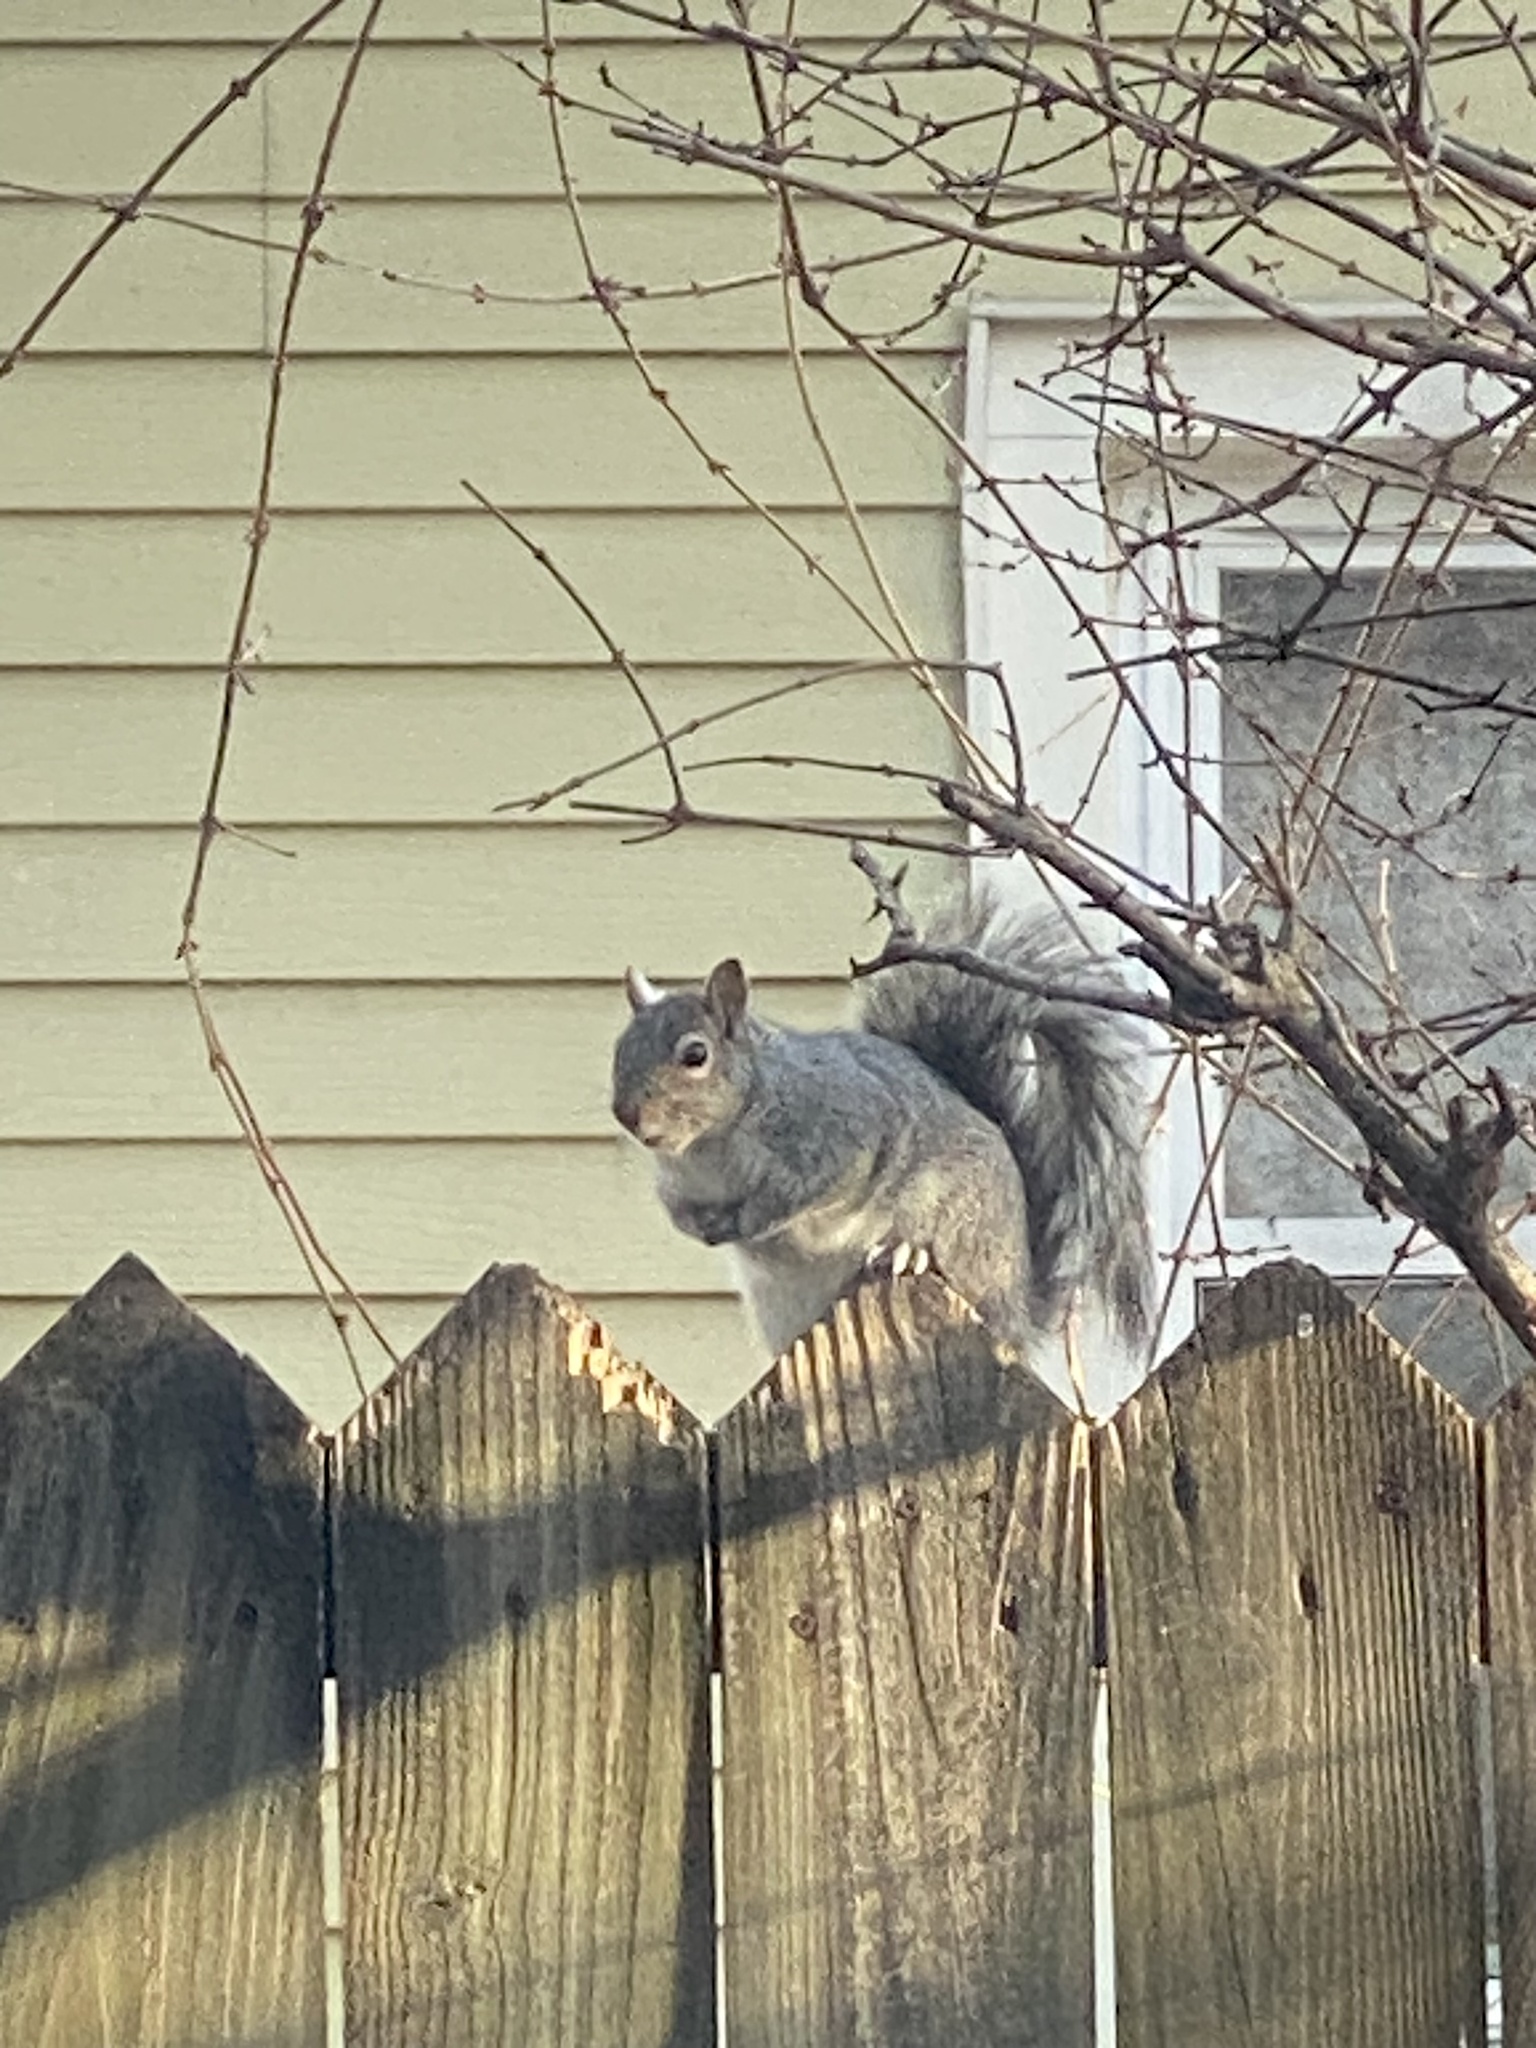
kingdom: Animalia
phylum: Chordata
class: Mammalia
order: Rodentia
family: Sciuridae
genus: Sciurus
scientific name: Sciurus carolinensis
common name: Eastern gray squirrel
